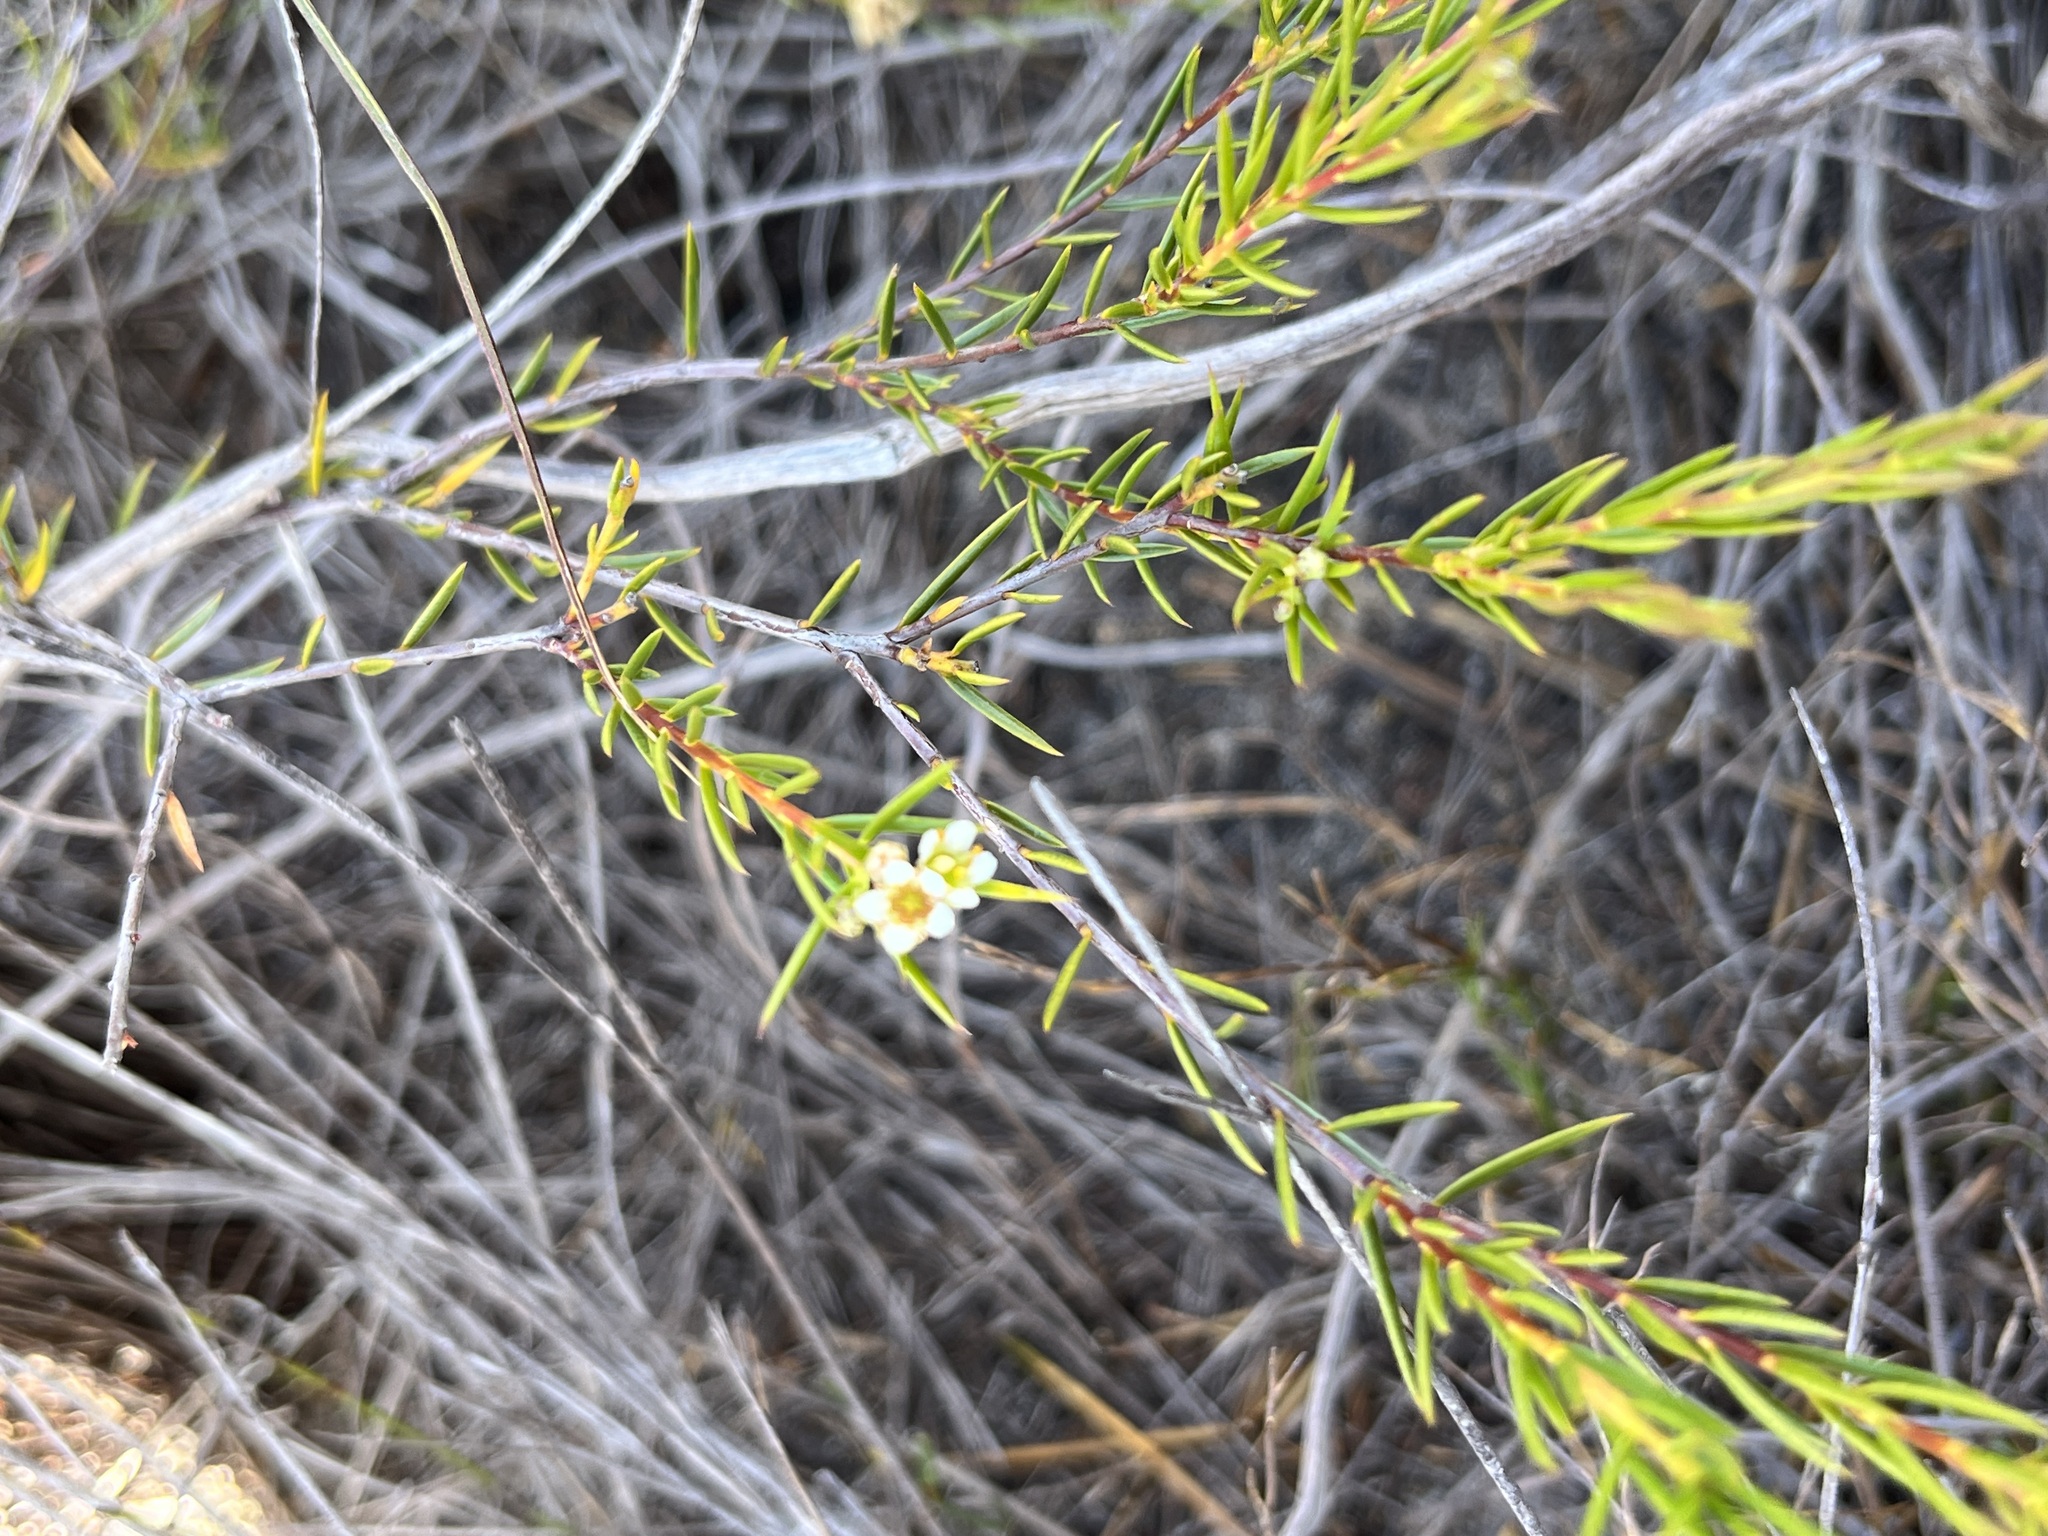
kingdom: Plantae
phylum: Tracheophyta
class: Magnoliopsida
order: Sapindales
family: Rutaceae
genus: Diosma
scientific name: Diosma hirsuta
